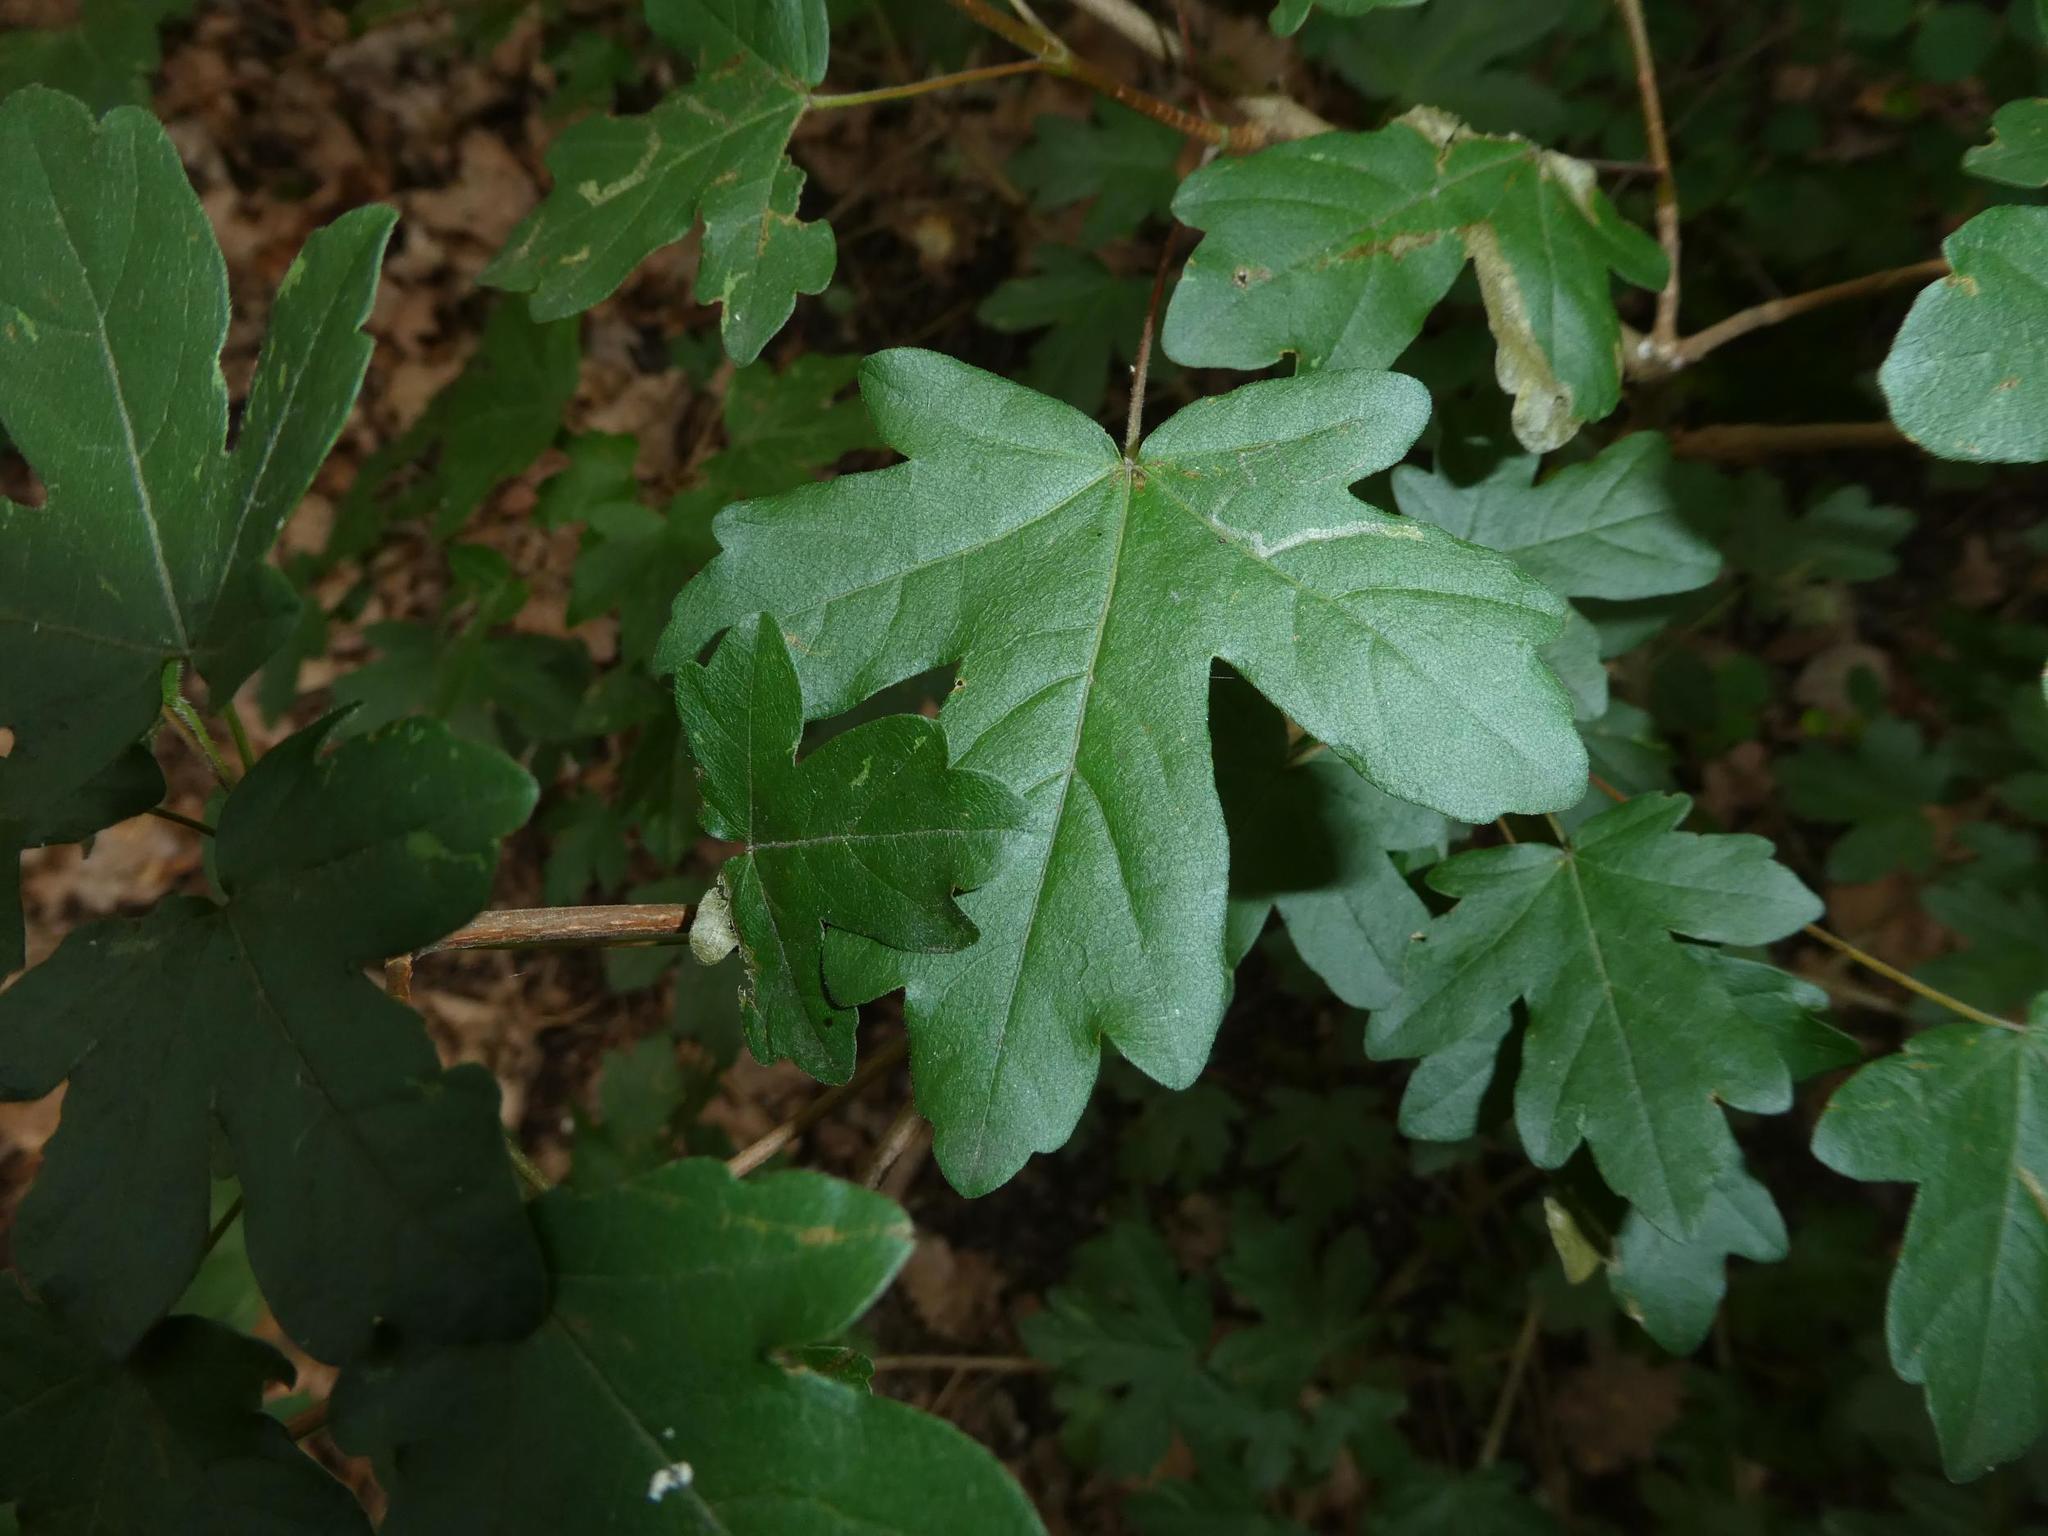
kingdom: Plantae
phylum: Tracheophyta
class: Magnoliopsida
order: Sapindales
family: Sapindaceae
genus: Acer
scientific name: Acer campestre
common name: Field maple
